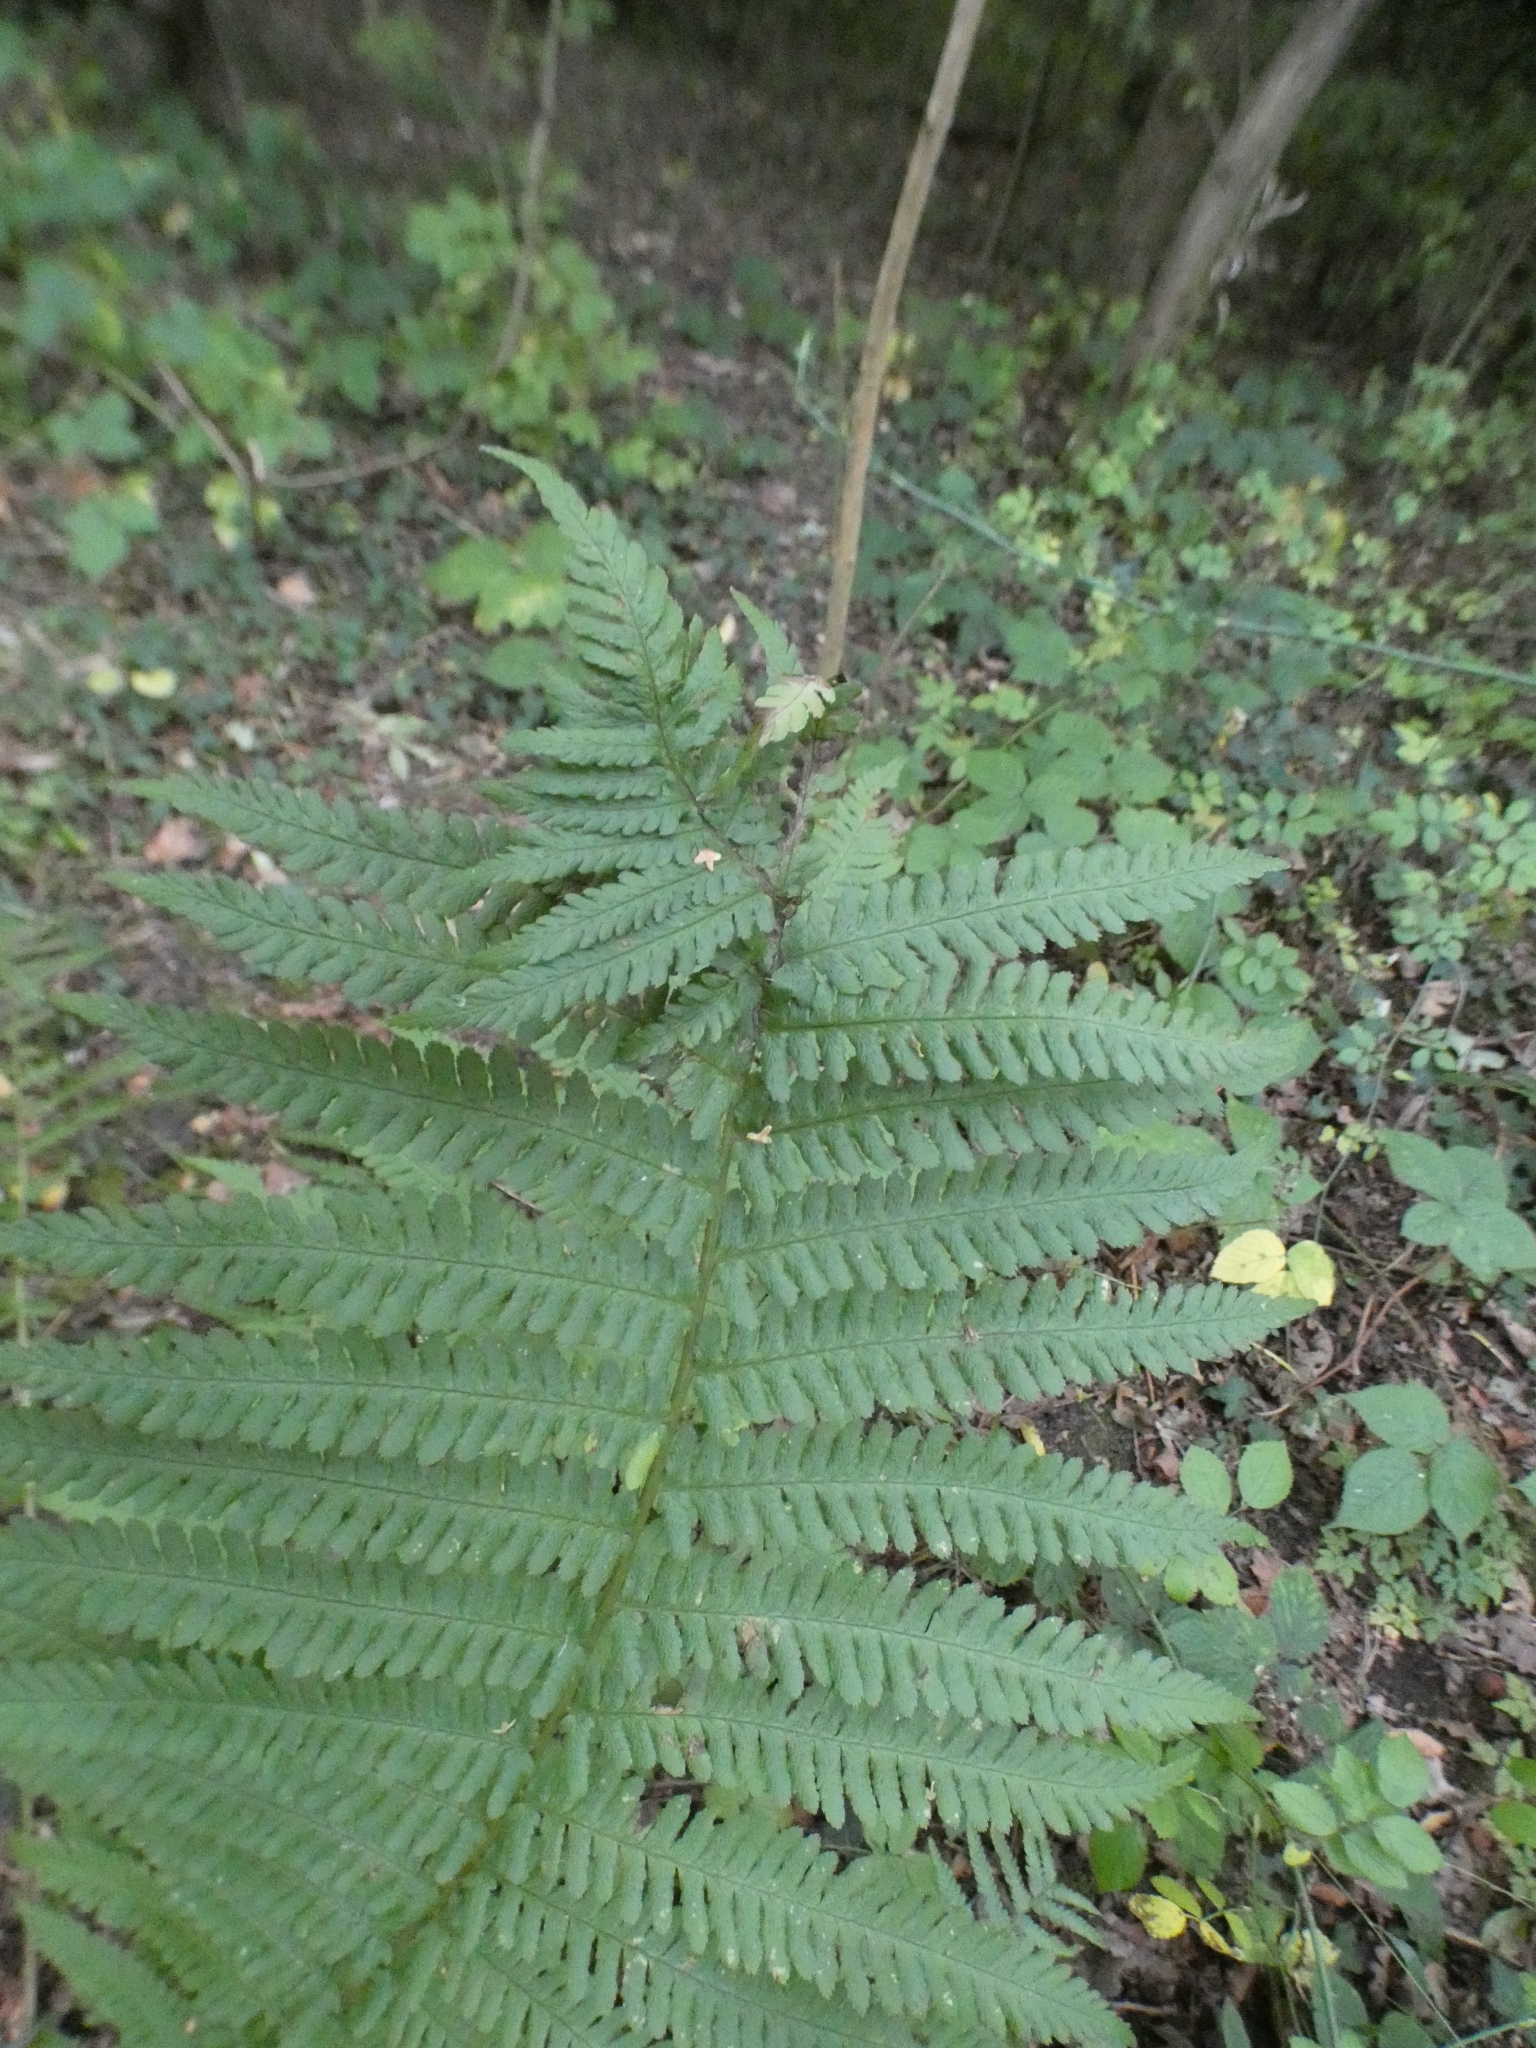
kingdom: Plantae
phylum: Tracheophyta
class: Polypodiopsida
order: Polypodiales
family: Dryopteridaceae
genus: Dryopteris
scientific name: Dryopteris filix-mas
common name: Male fern
